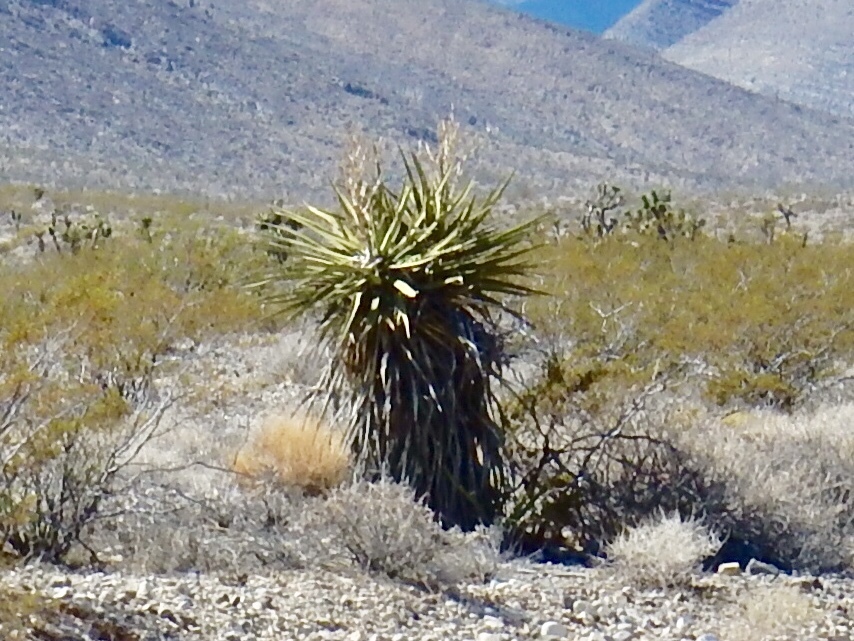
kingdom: Plantae
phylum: Tracheophyta
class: Liliopsida
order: Asparagales
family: Asparagaceae
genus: Yucca
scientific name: Yucca schidigera
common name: Mojave yucca
